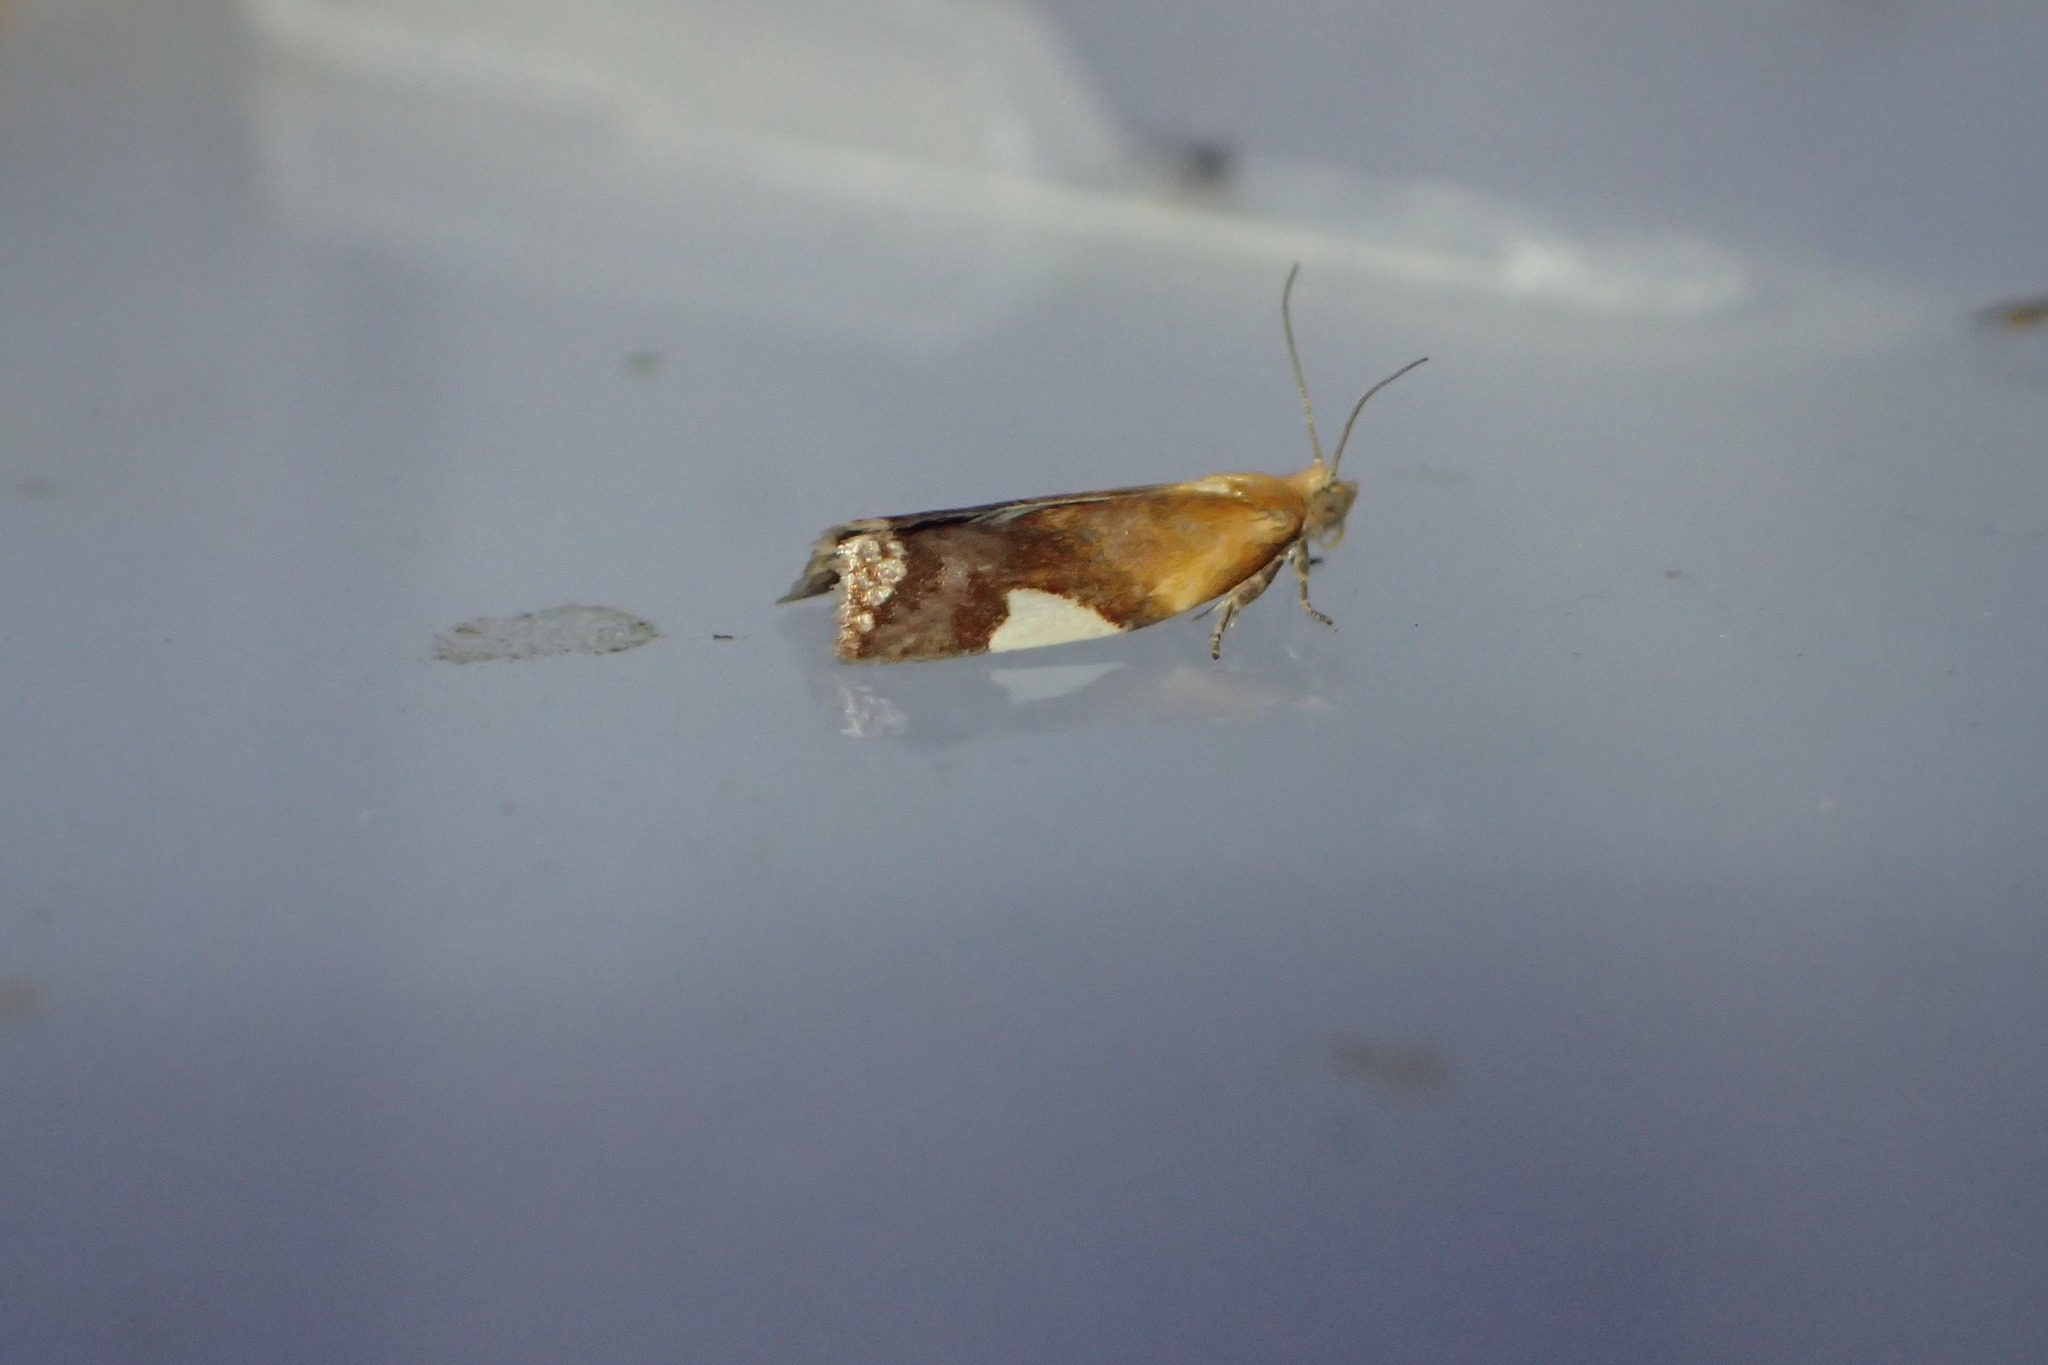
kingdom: Animalia
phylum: Arthropoda
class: Insecta
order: Lepidoptera
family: Tortricidae
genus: Clepsis
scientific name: Clepsis persicana
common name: White triangle tortrix
